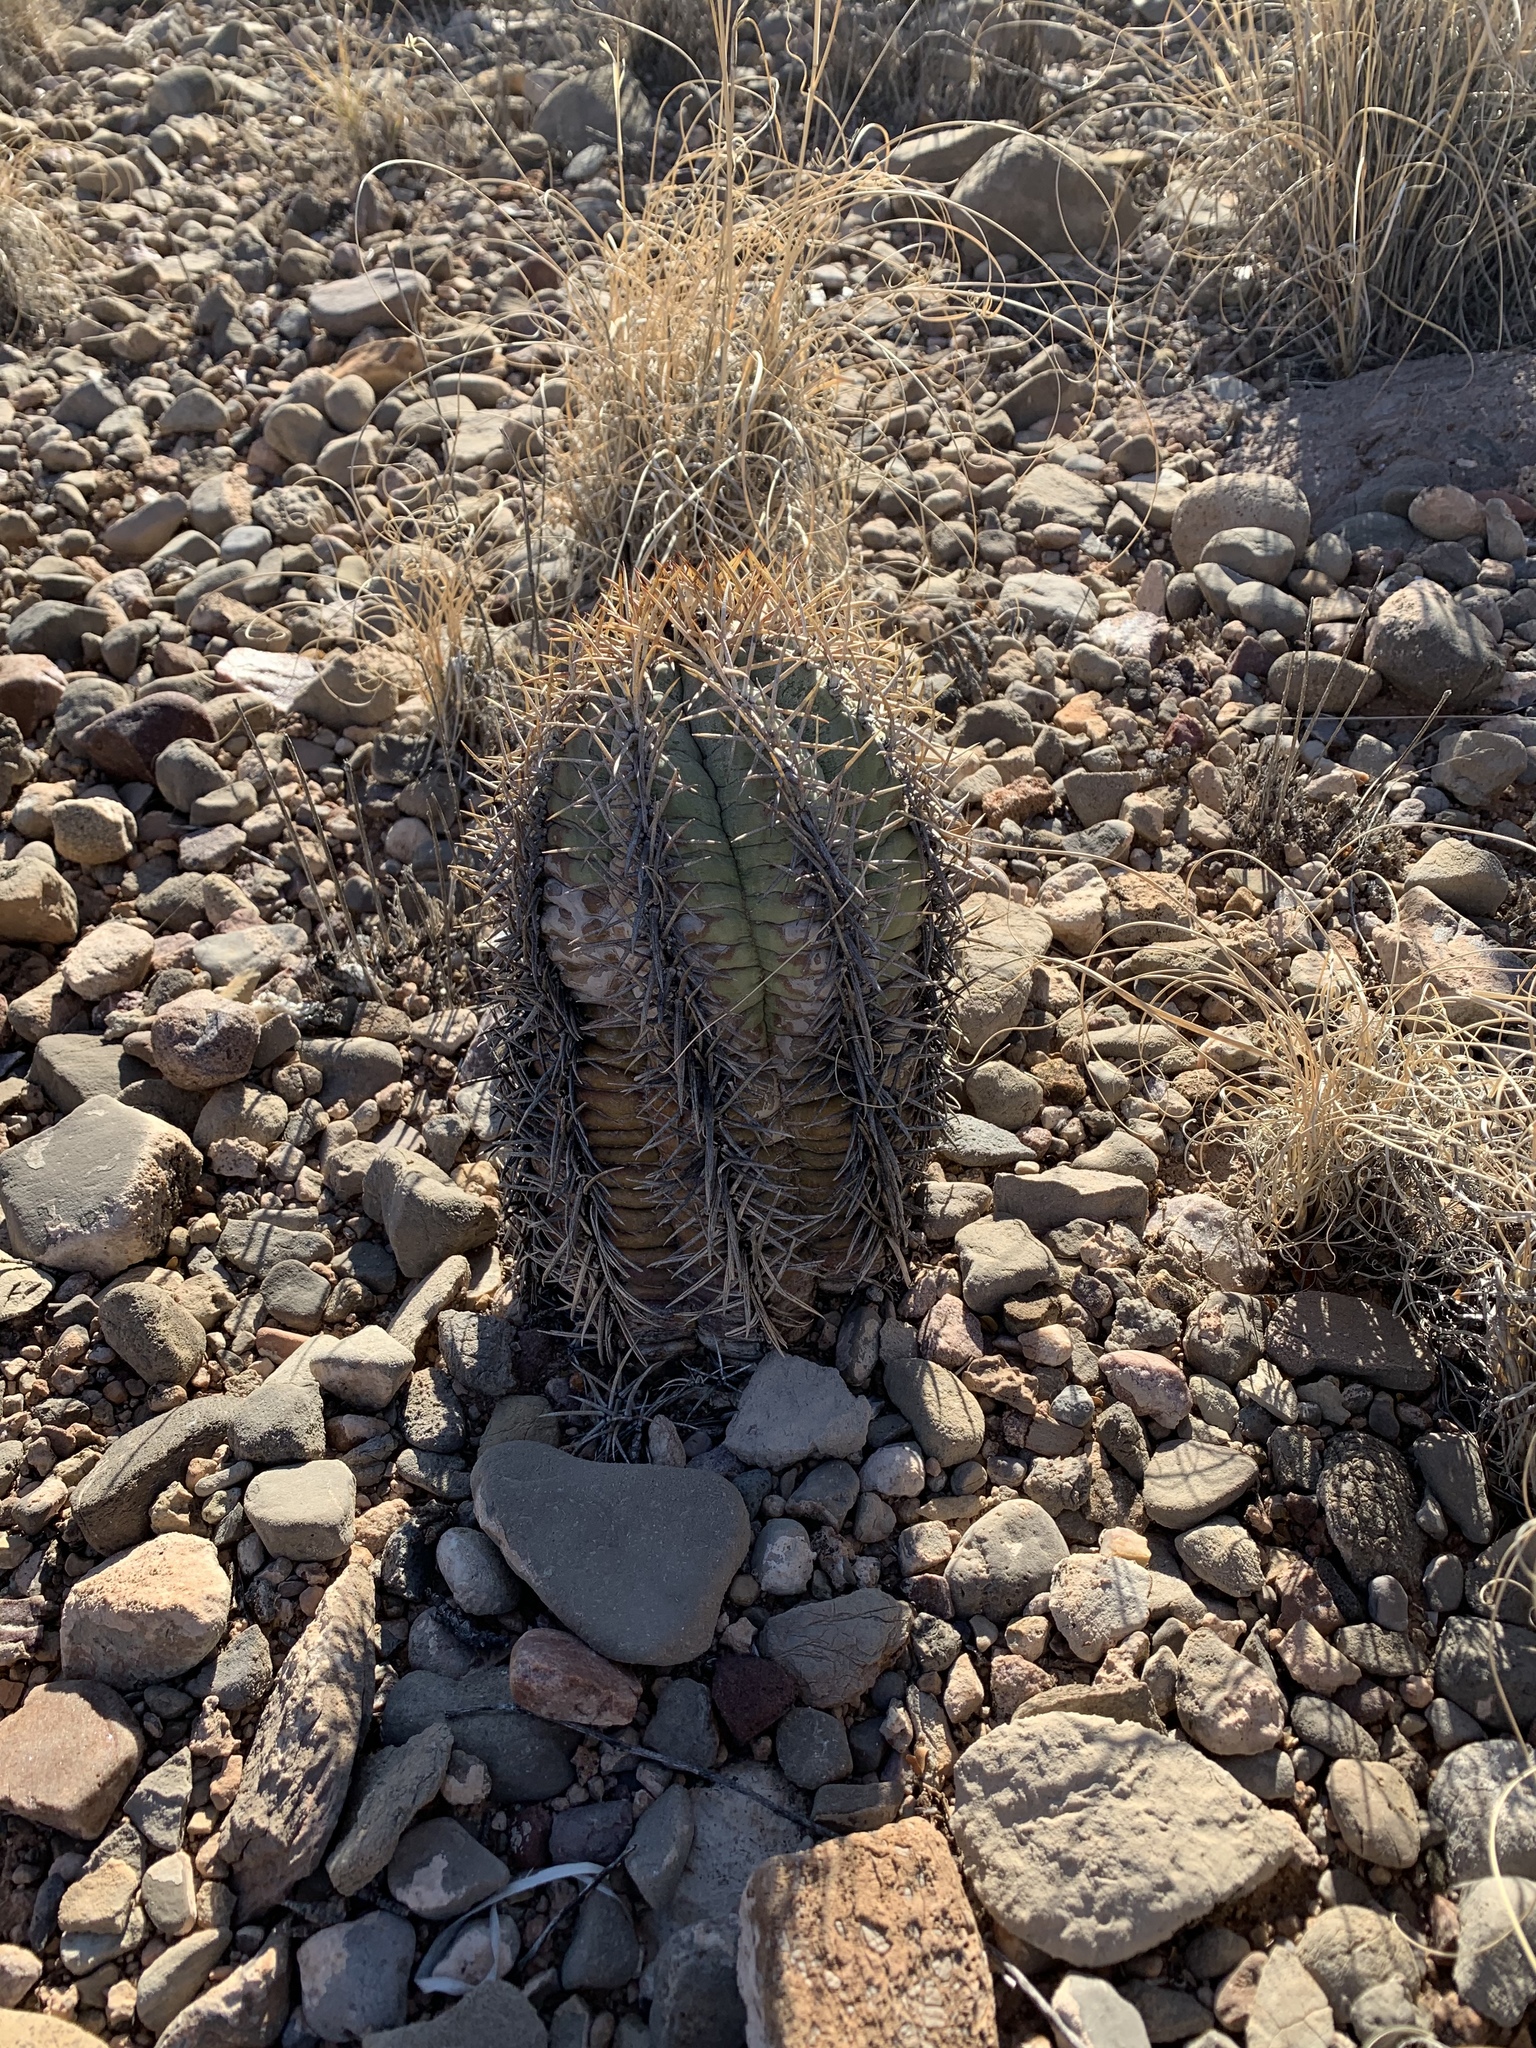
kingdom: Plantae
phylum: Tracheophyta
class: Magnoliopsida
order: Caryophyllales
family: Cactaceae
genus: Echinocactus
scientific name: Echinocactus horizonthalonius
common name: Devilshead
